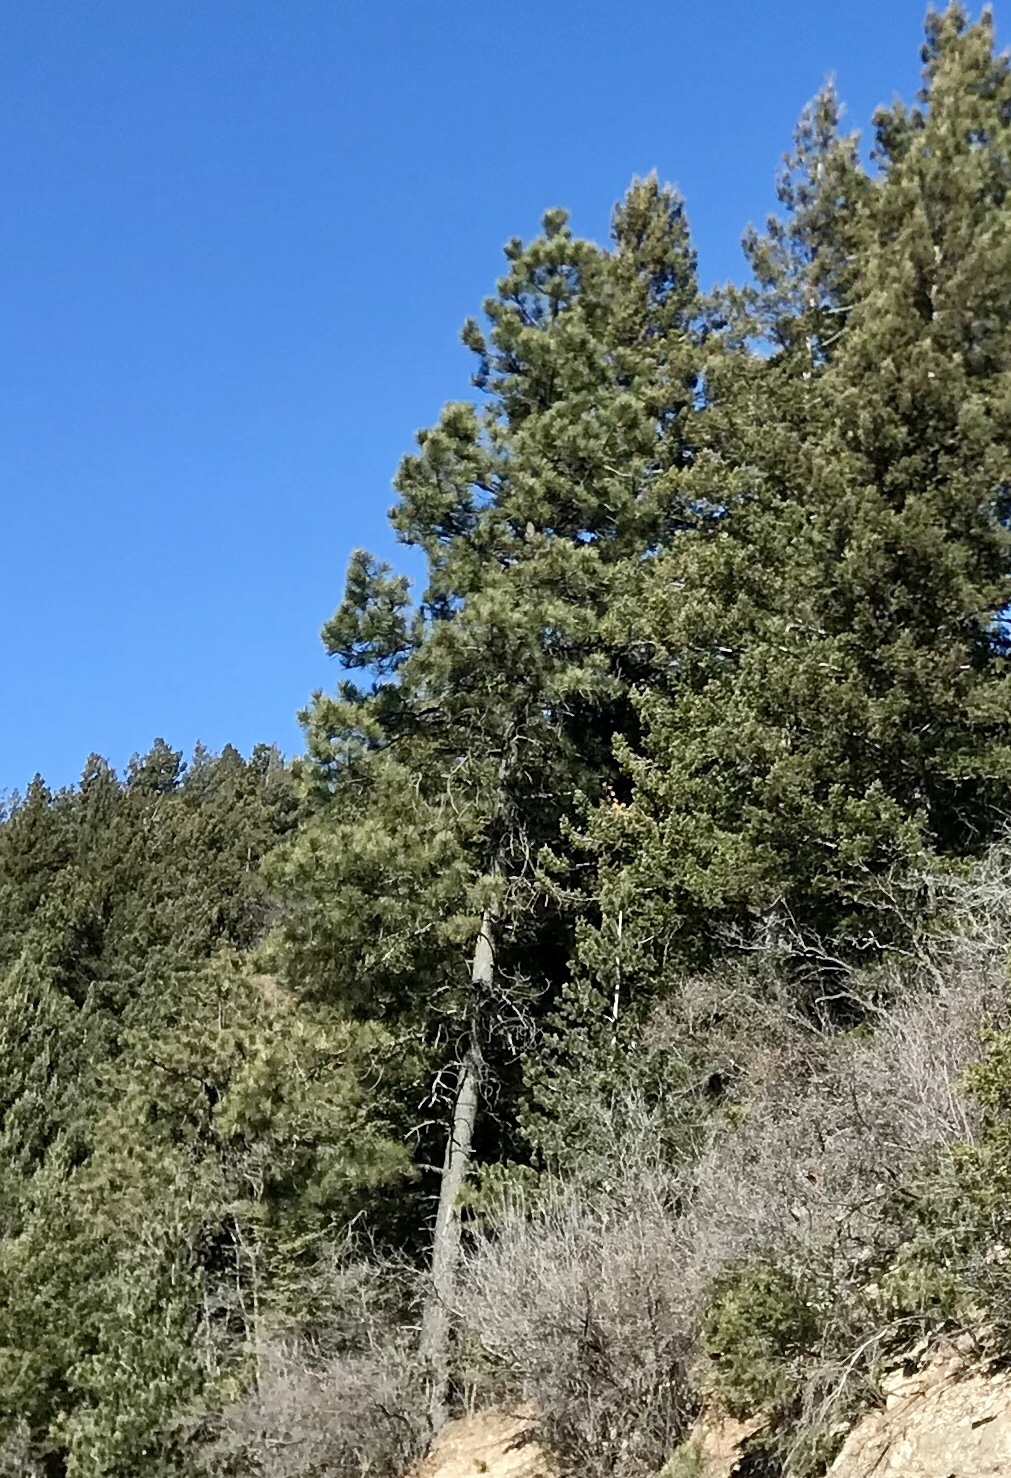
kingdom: Plantae
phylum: Tracheophyta
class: Pinopsida
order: Pinales
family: Pinaceae
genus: Pinus
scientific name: Pinus ponderosa
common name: Western yellow-pine
